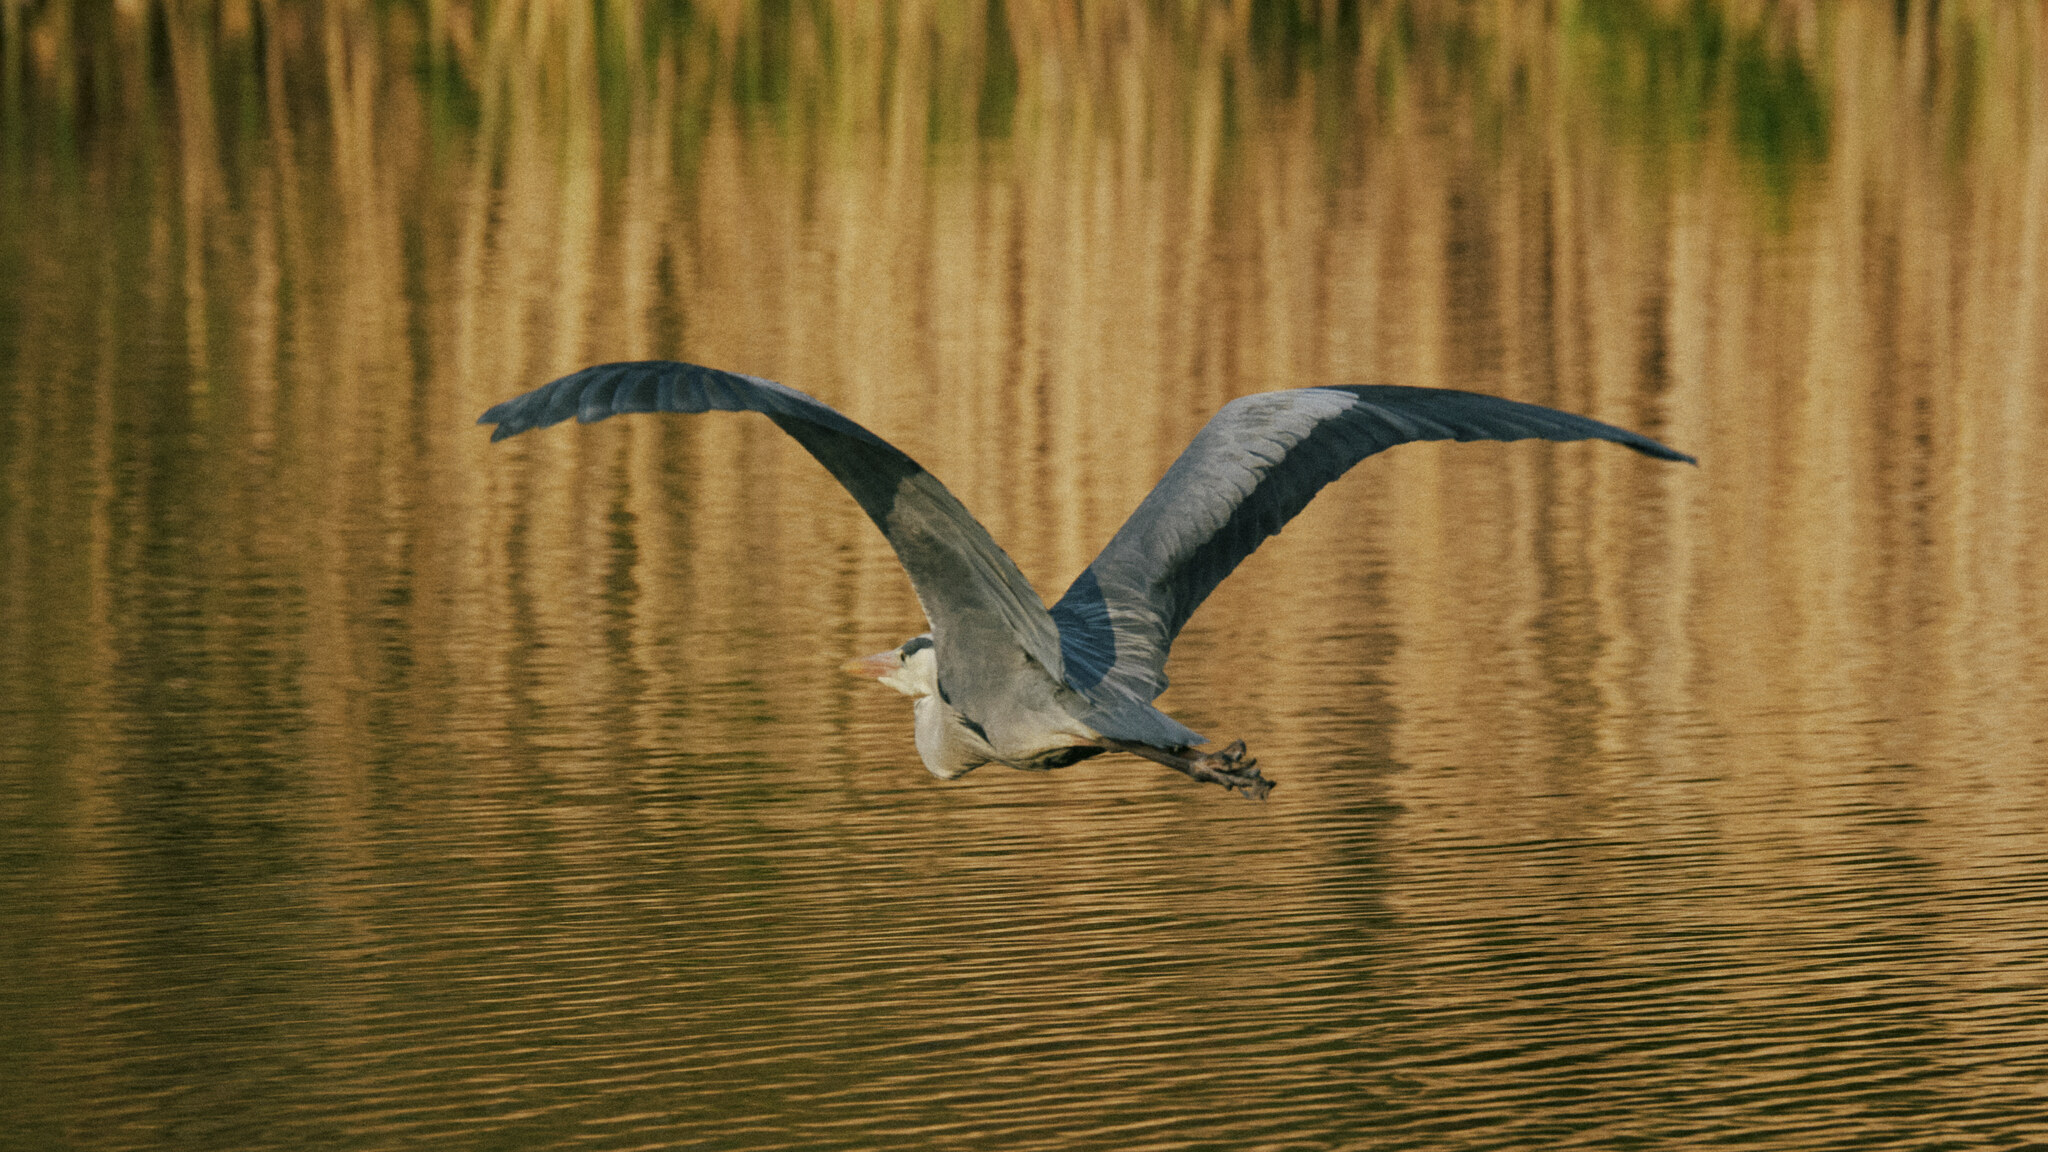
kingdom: Animalia
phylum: Chordata
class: Aves
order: Pelecaniformes
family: Ardeidae
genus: Ardea
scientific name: Ardea cinerea
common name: Grey heron
